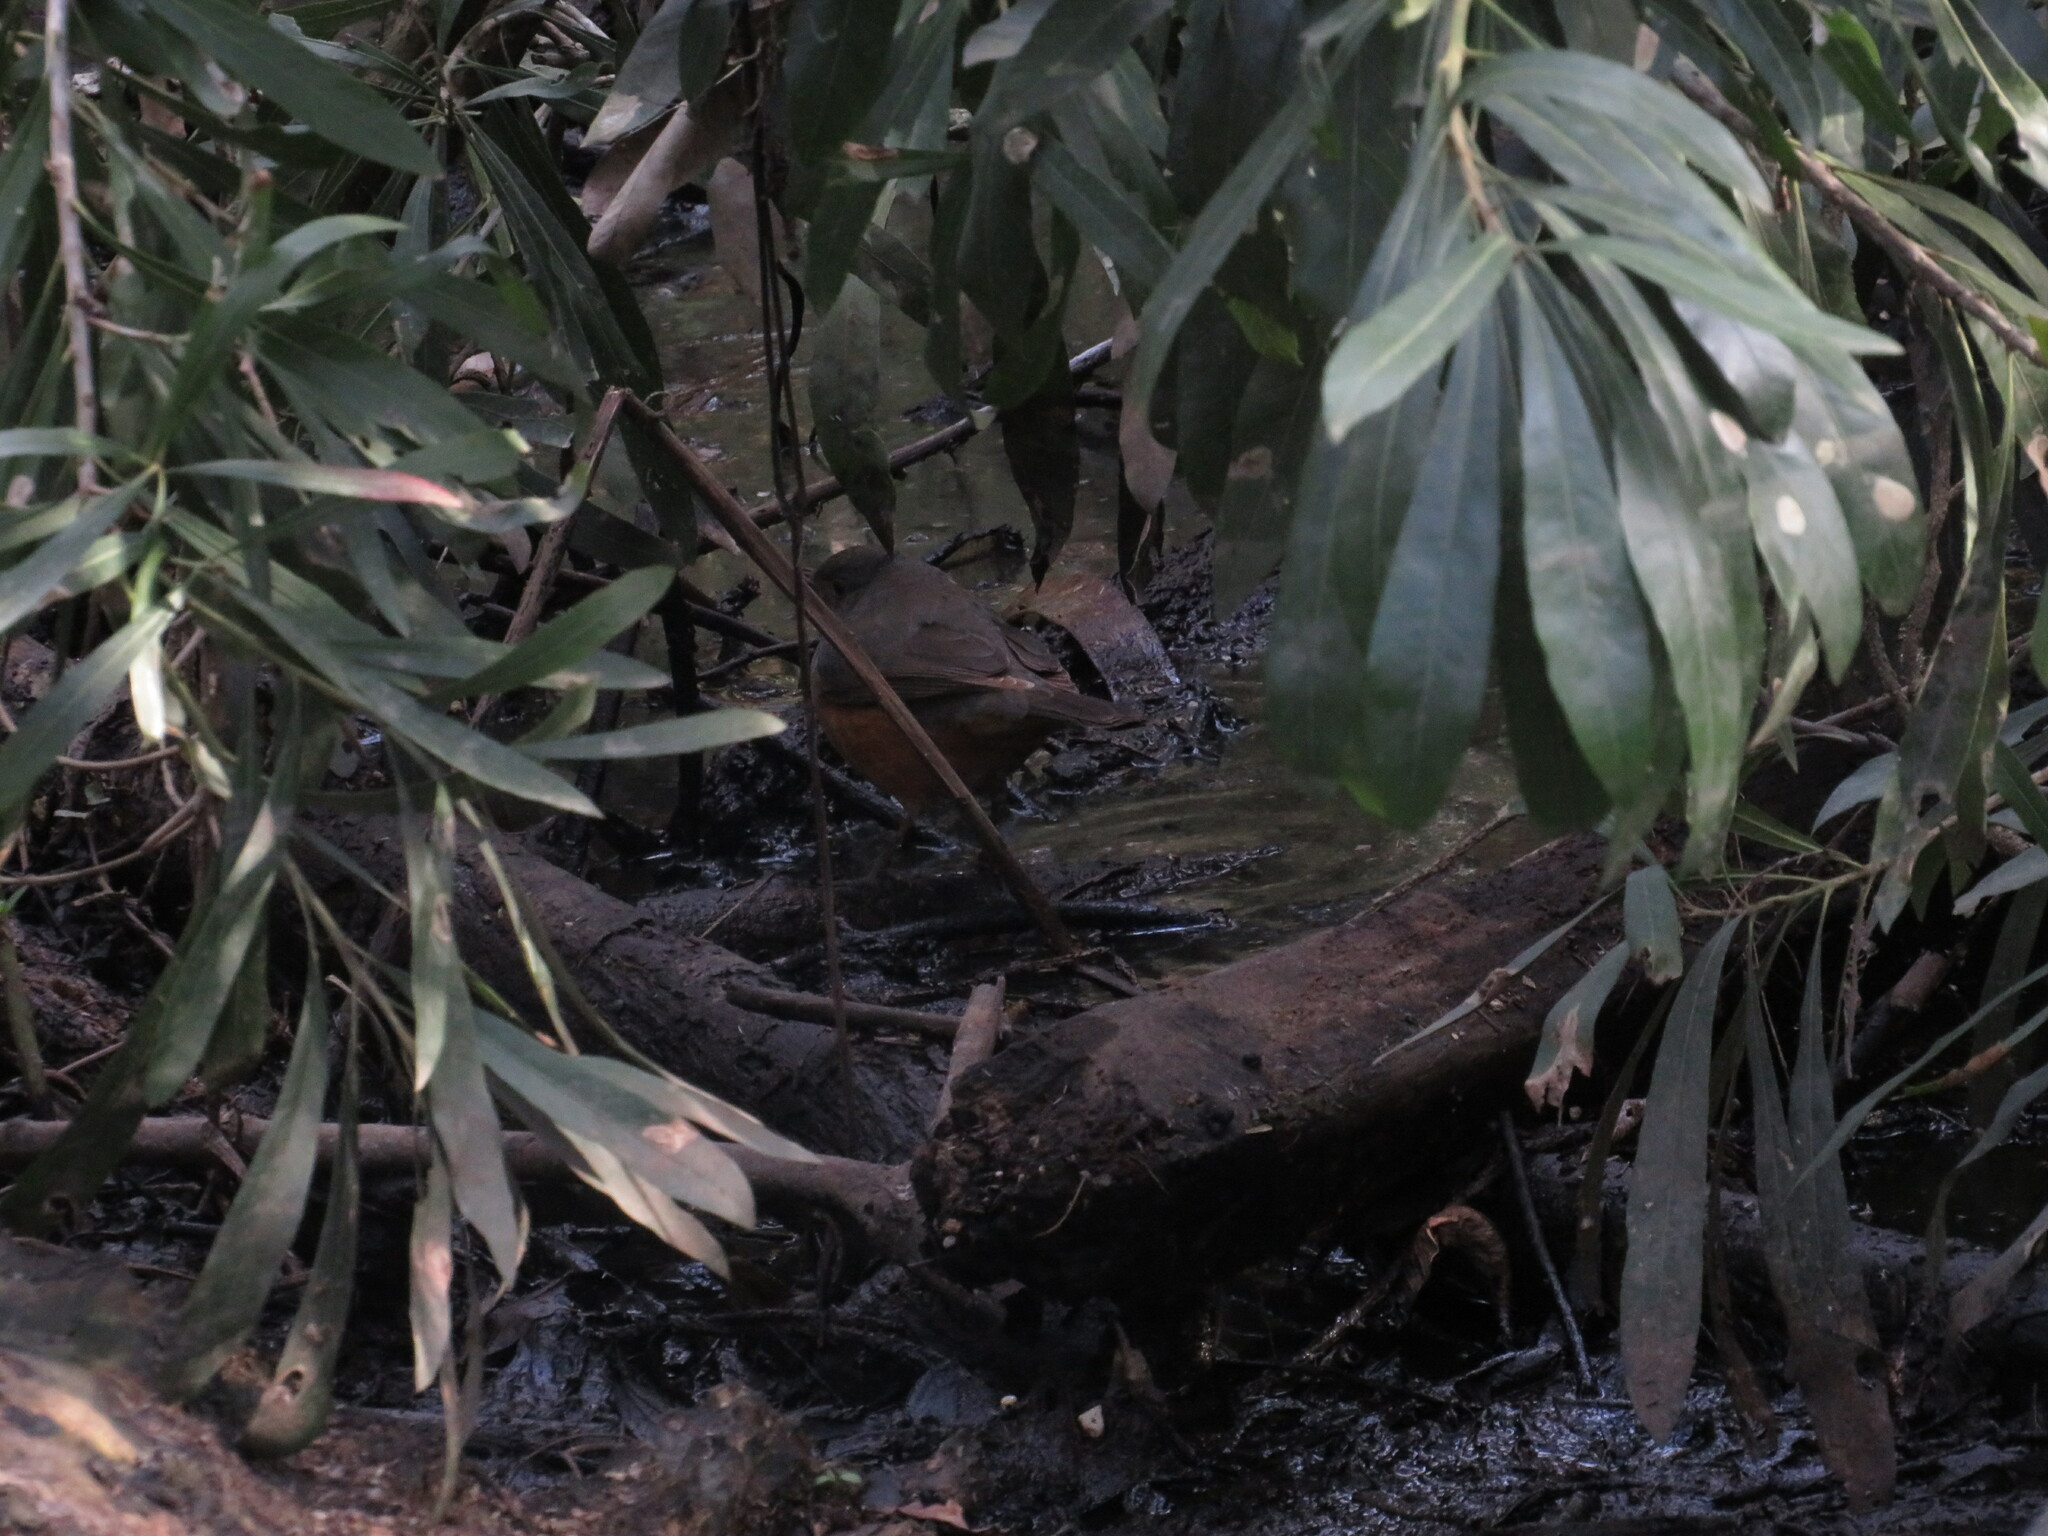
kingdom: Animalia
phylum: Chordata
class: Aves
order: Passeriformes
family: Turdidae
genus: Turdus
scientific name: Turdus rufiventris
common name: Rufous-bellied thrush
